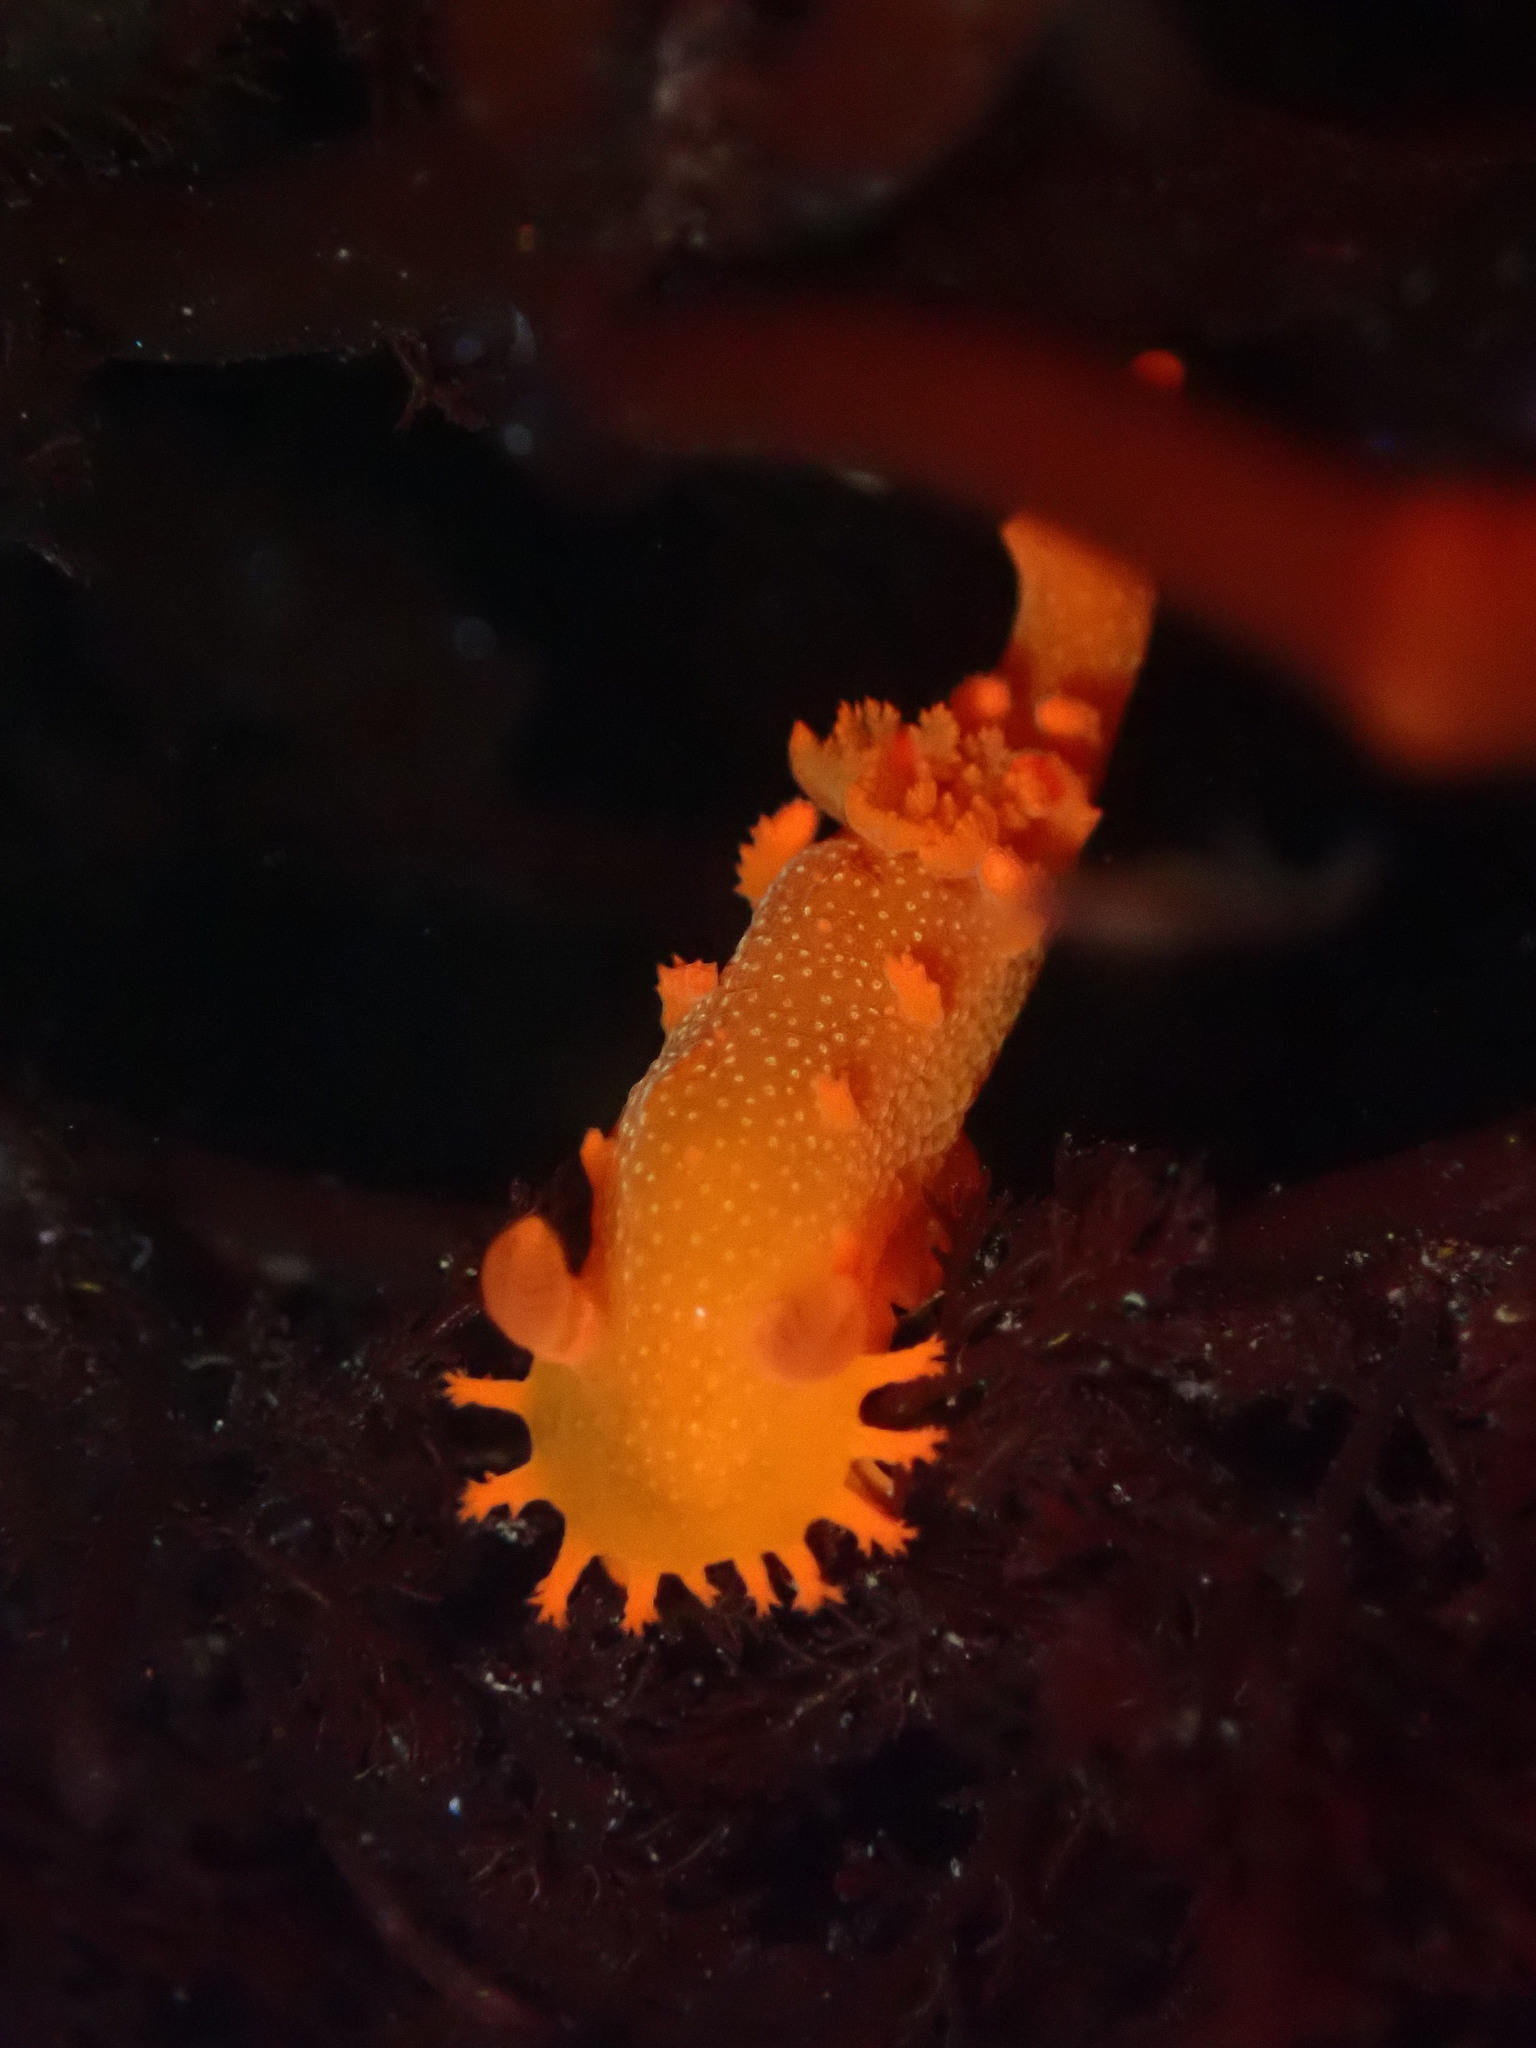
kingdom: Animalia
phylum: Mollusca
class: Gastropoda
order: Nudibranchia
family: Polyceridae
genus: Triopha
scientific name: Triopha maculata
